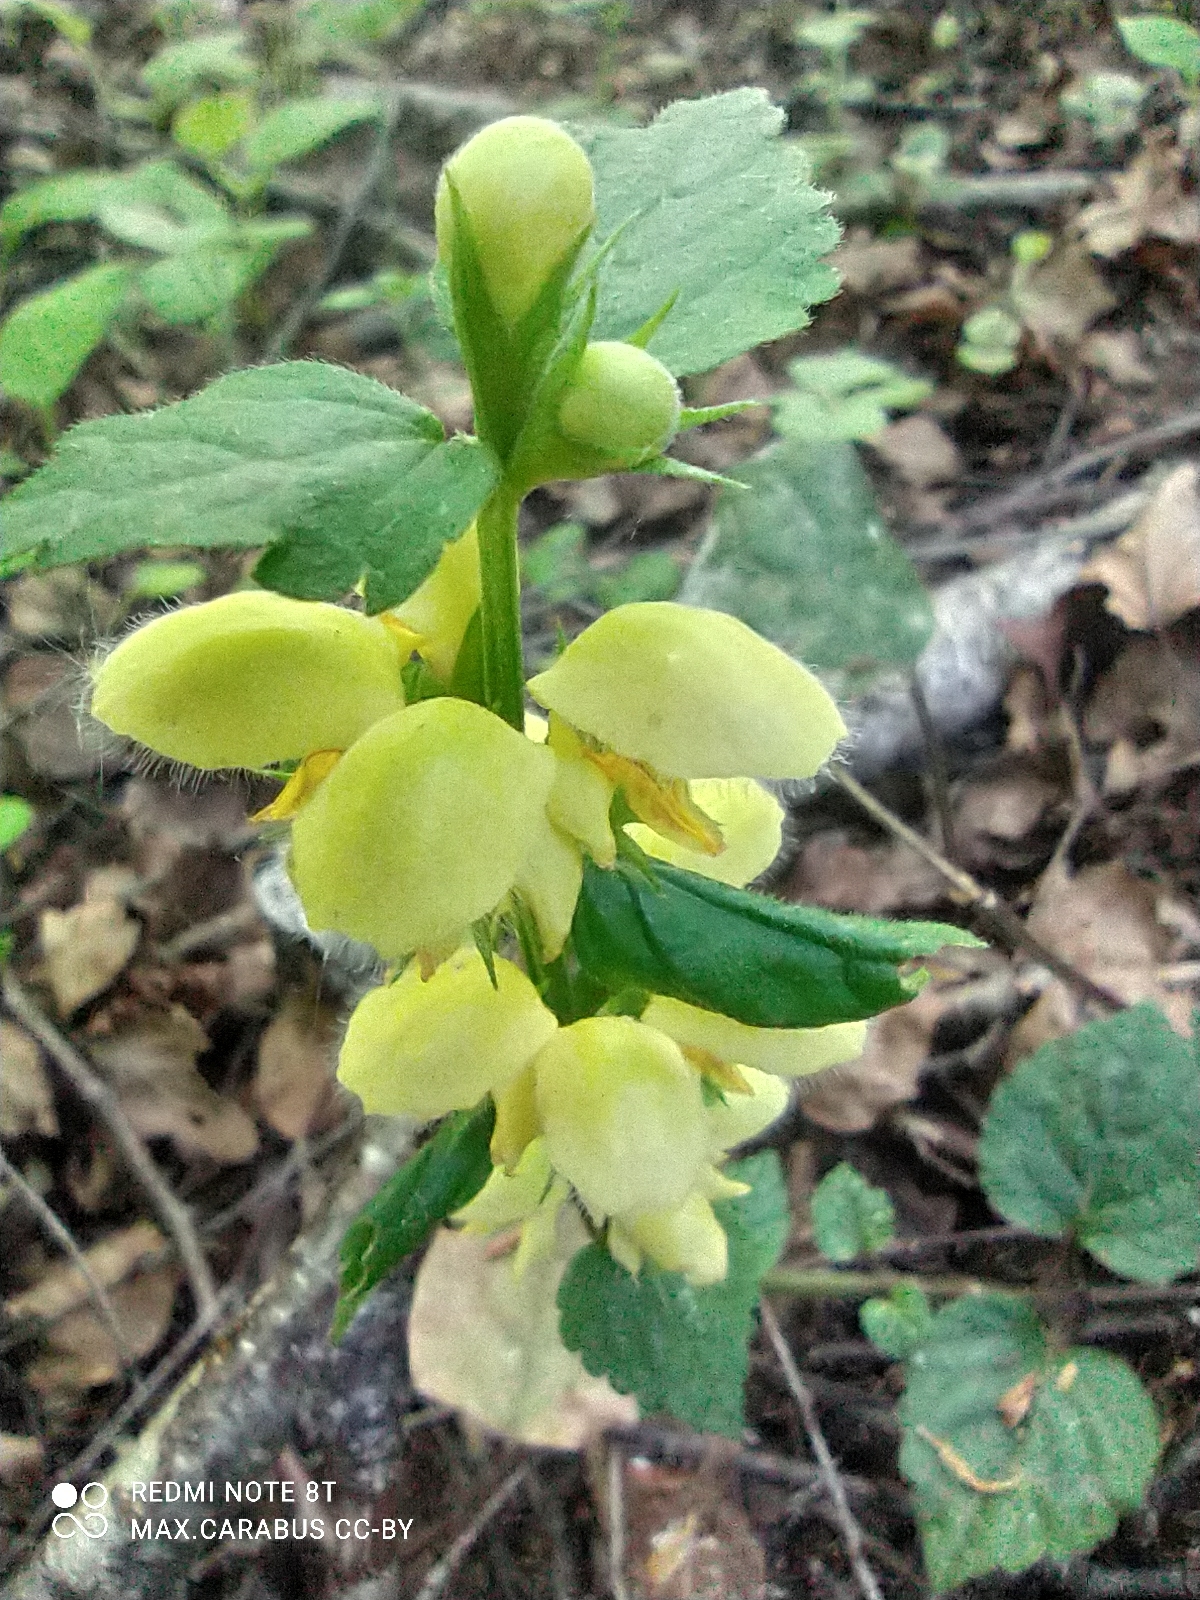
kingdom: Plantae
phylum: Tracheophyta
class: Magnoliopsida
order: Lamiales
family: Lamiaceae
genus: Lamium
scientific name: Lamium galeobdolon
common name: Yellow archangel
